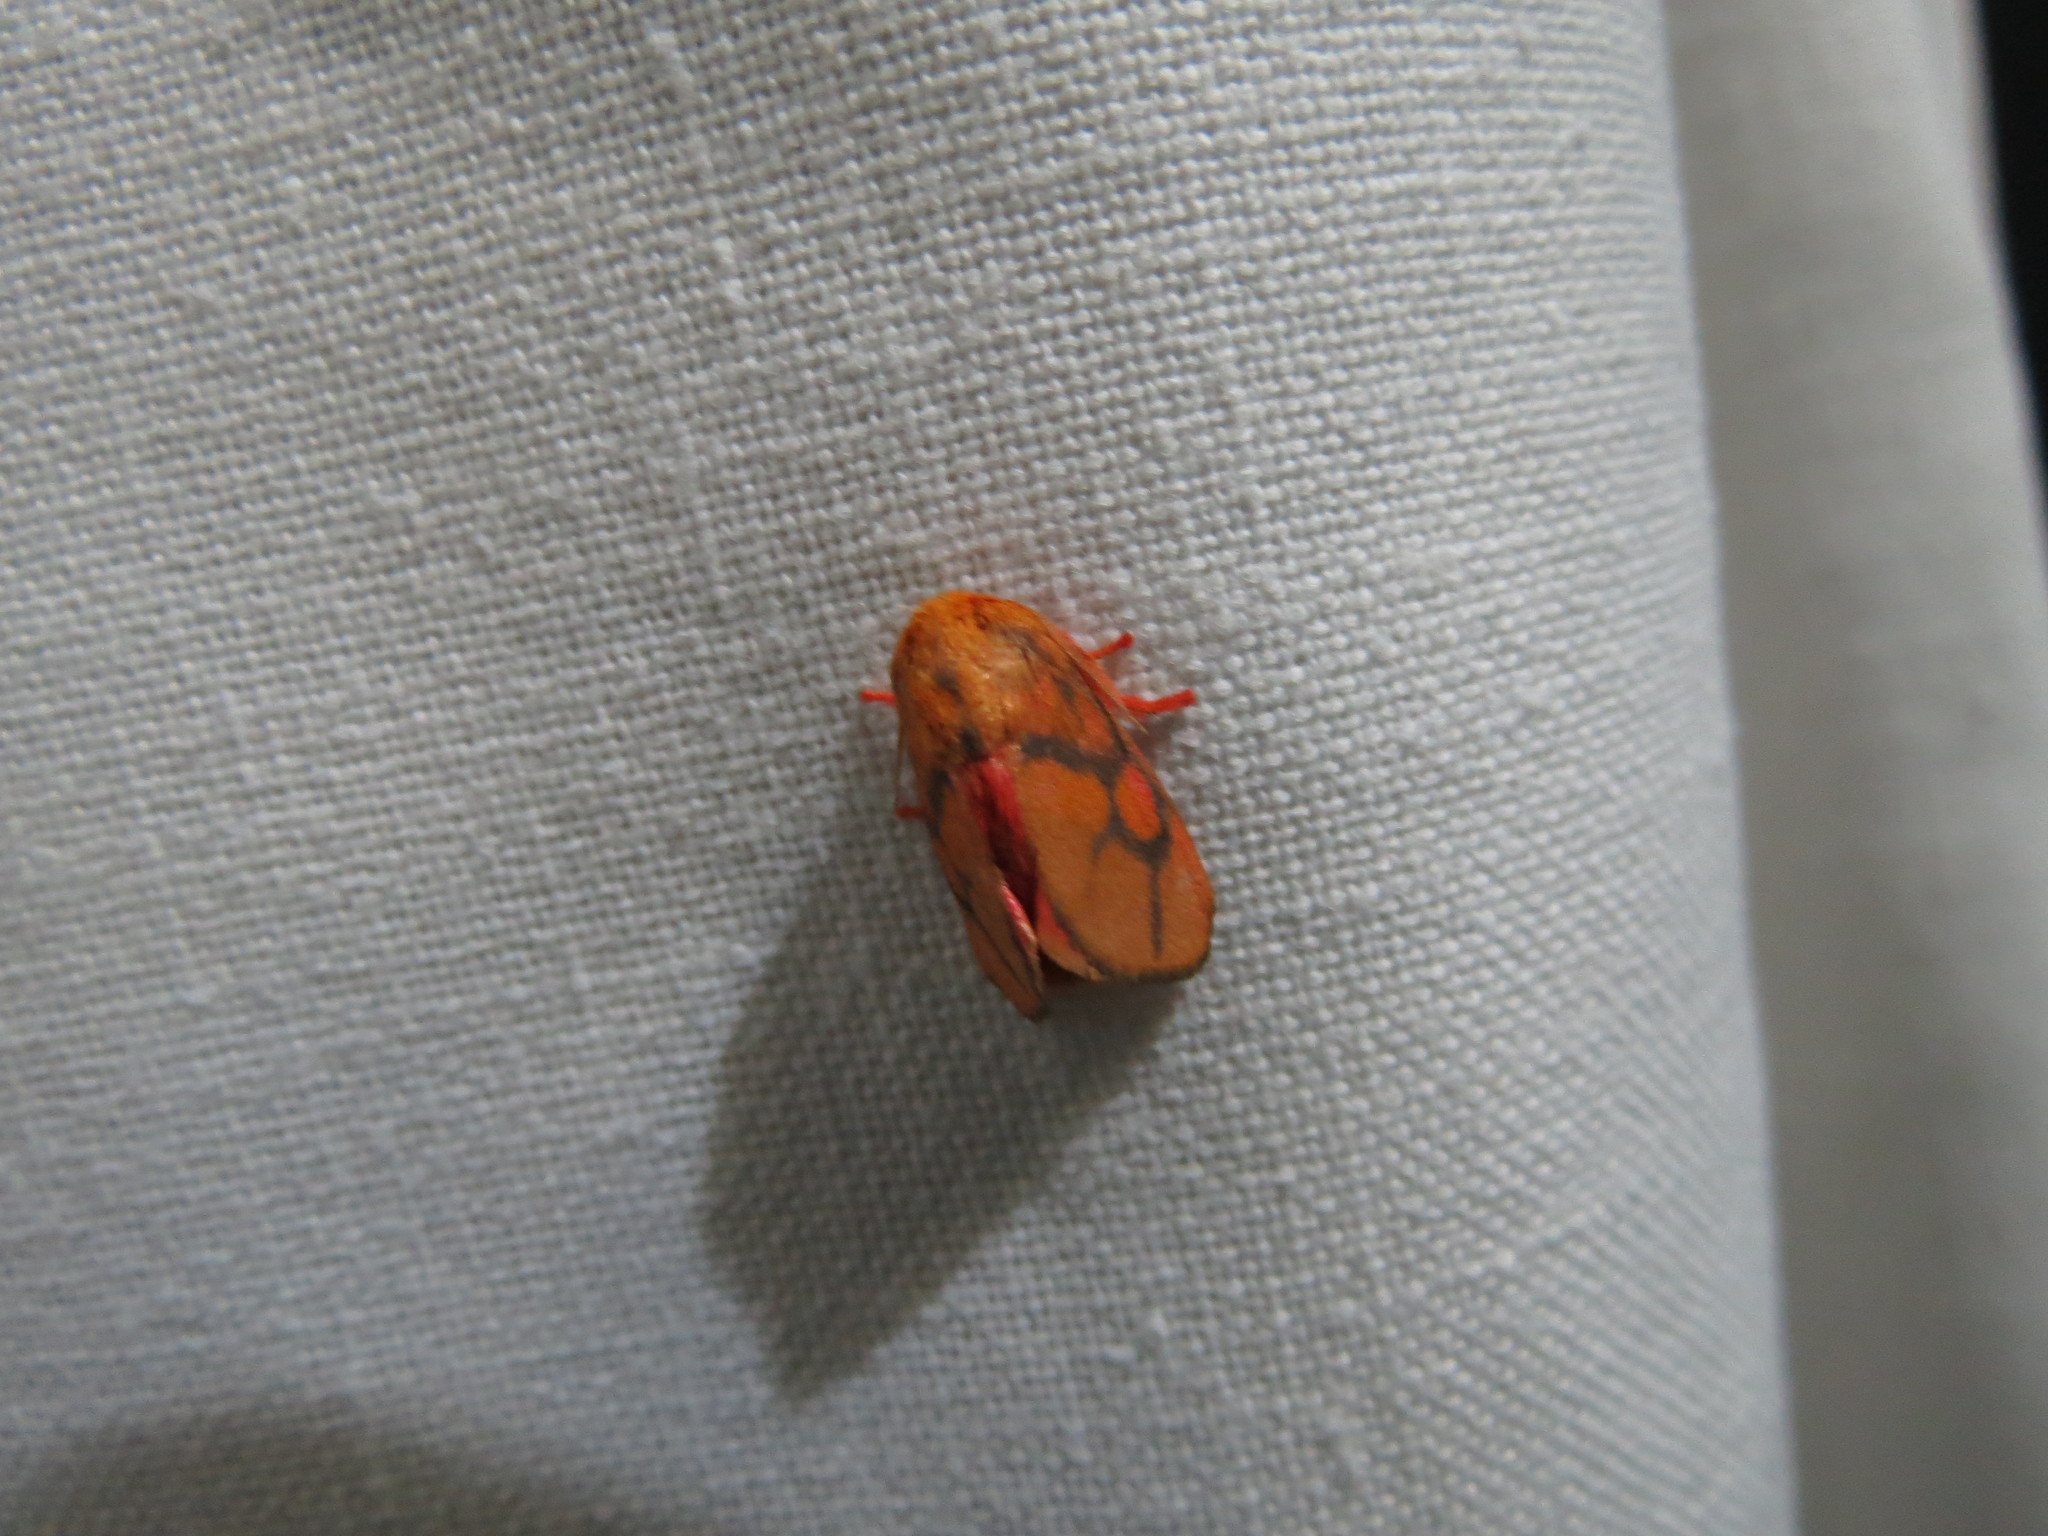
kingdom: Animalia
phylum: Arthropoda
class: Insecta
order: Lepidoptera
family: Limacodidae
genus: Micraphe
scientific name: Micraphe lateritia
